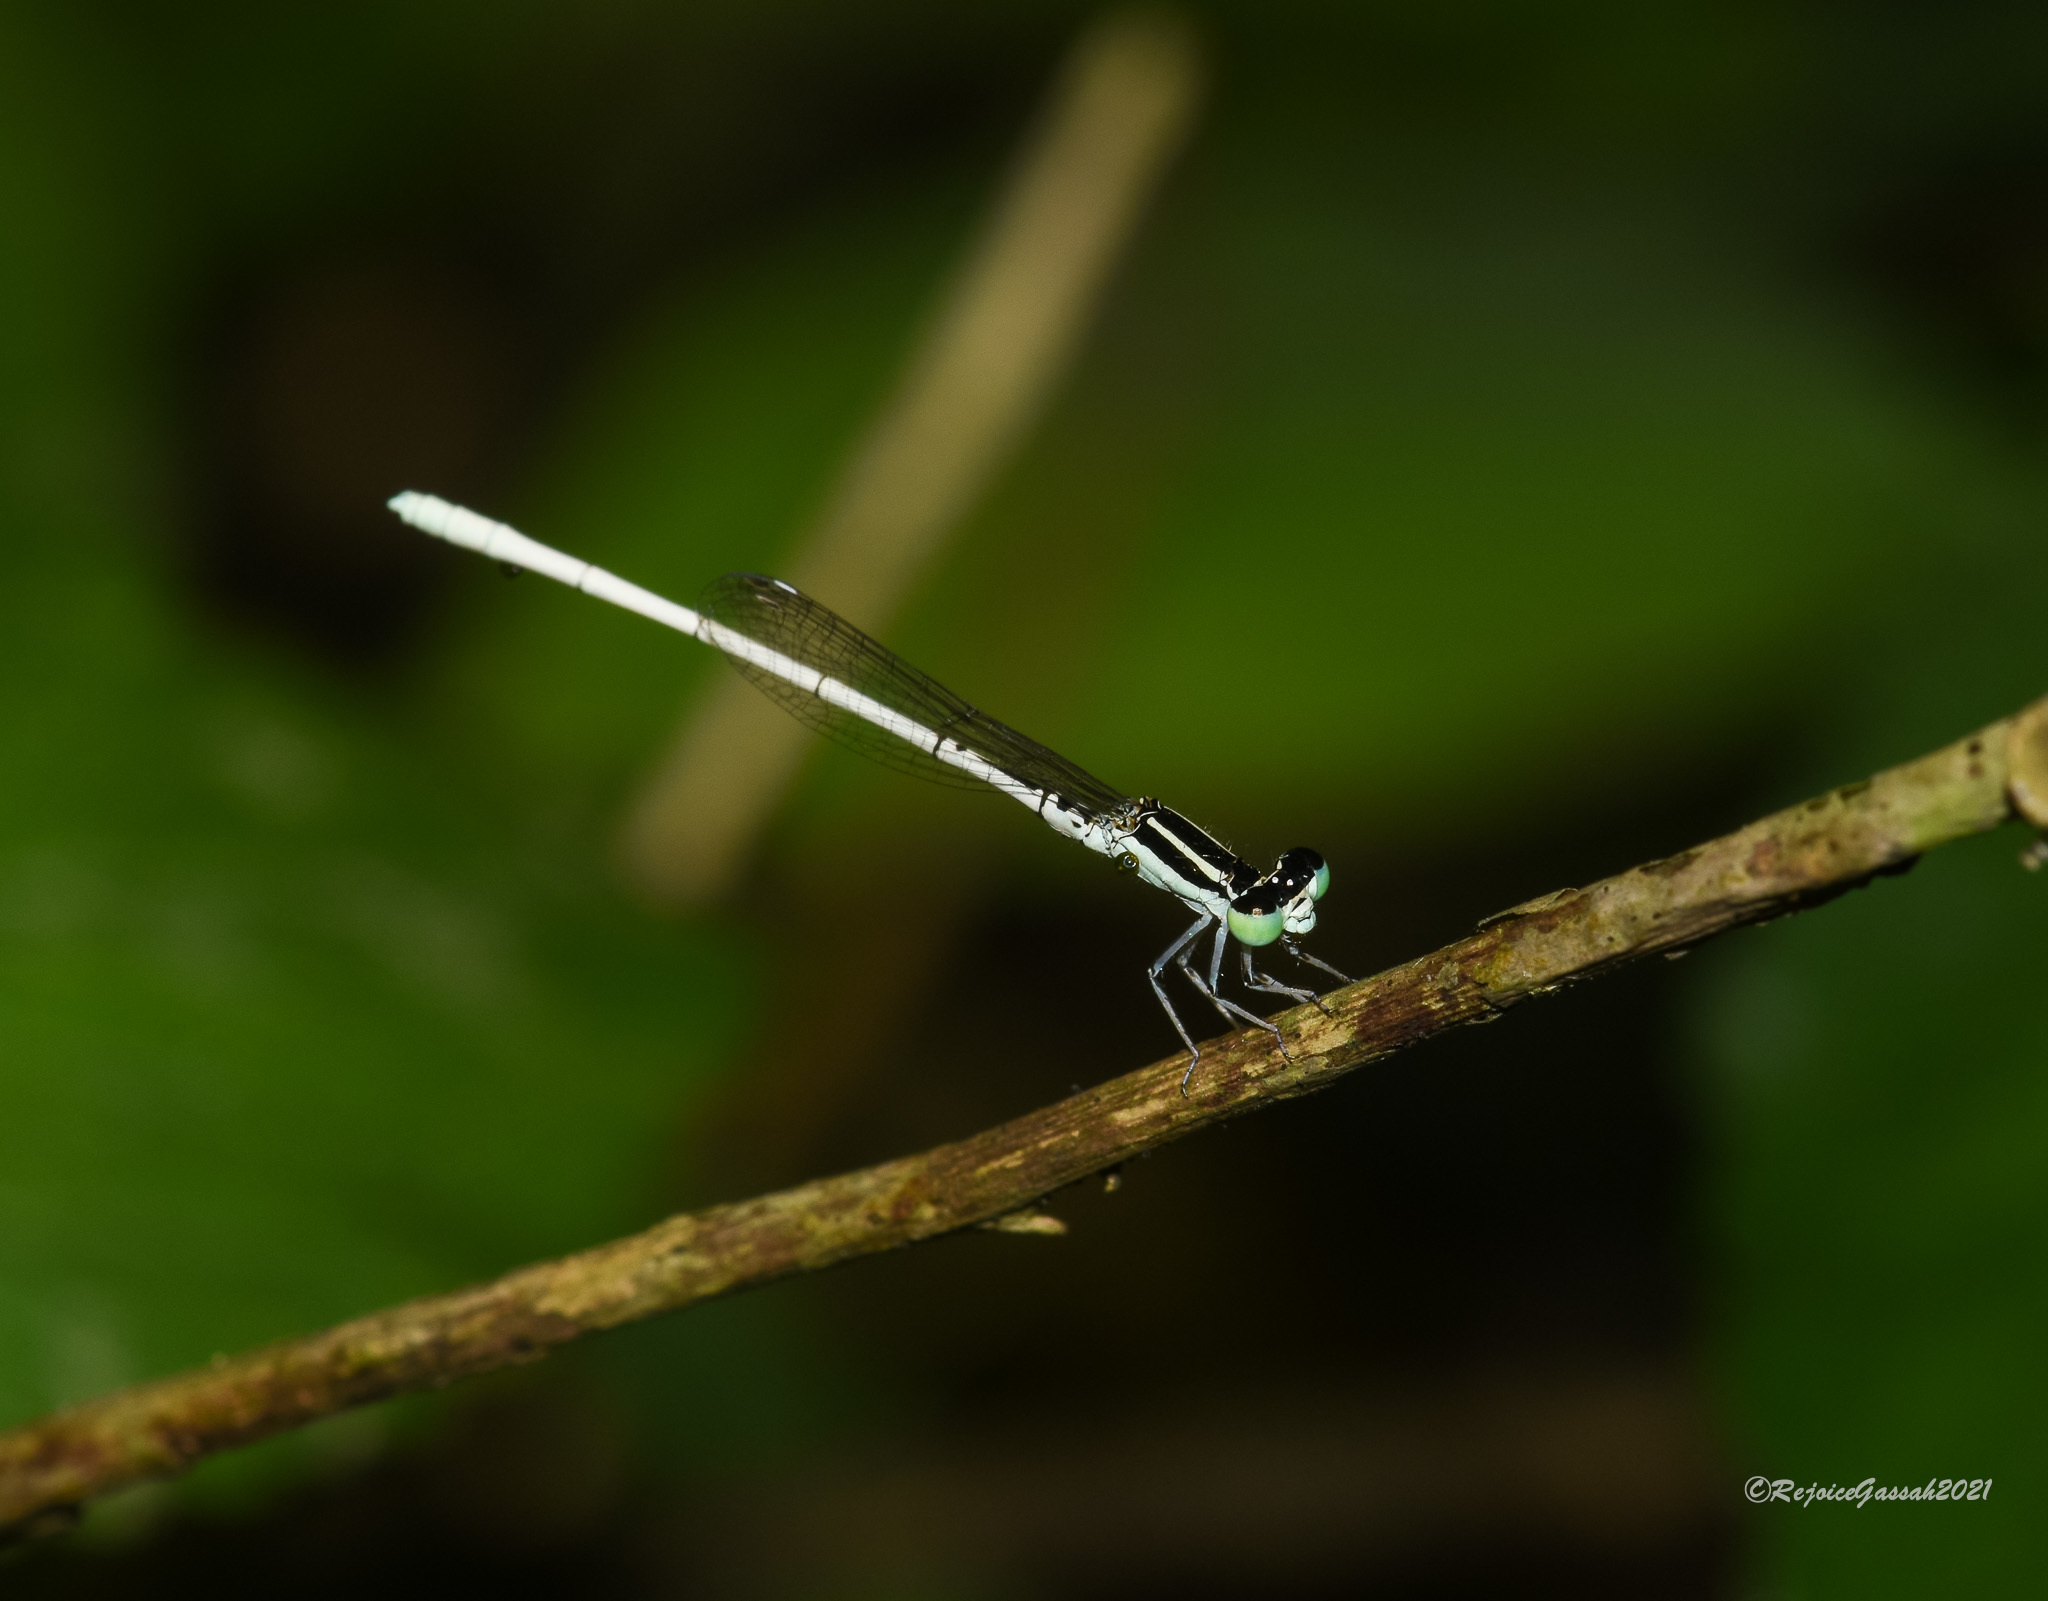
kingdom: Animalia
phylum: Arthropoda
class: Insecta
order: Odonata
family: Coenagrionidae
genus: Agriocnemis
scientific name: Agriocnemis lacteola
